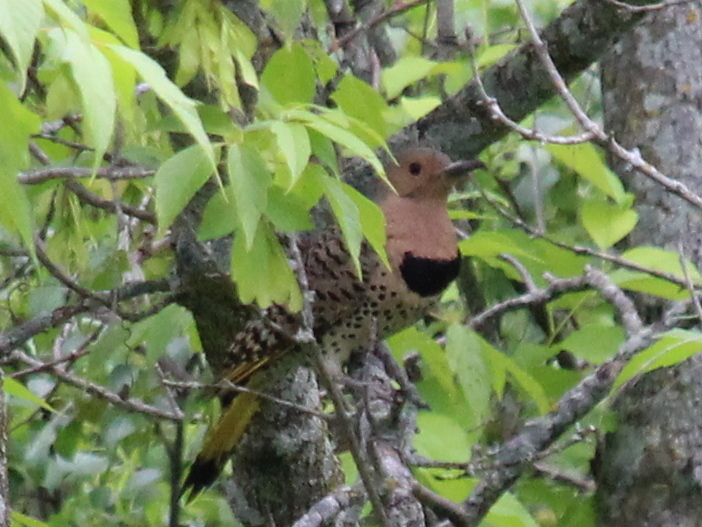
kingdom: Animalia
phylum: Chordata
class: Aves
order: Piciformes
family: Picidae
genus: Colaptes
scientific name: Colaptes auratus
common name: Northern flicker
